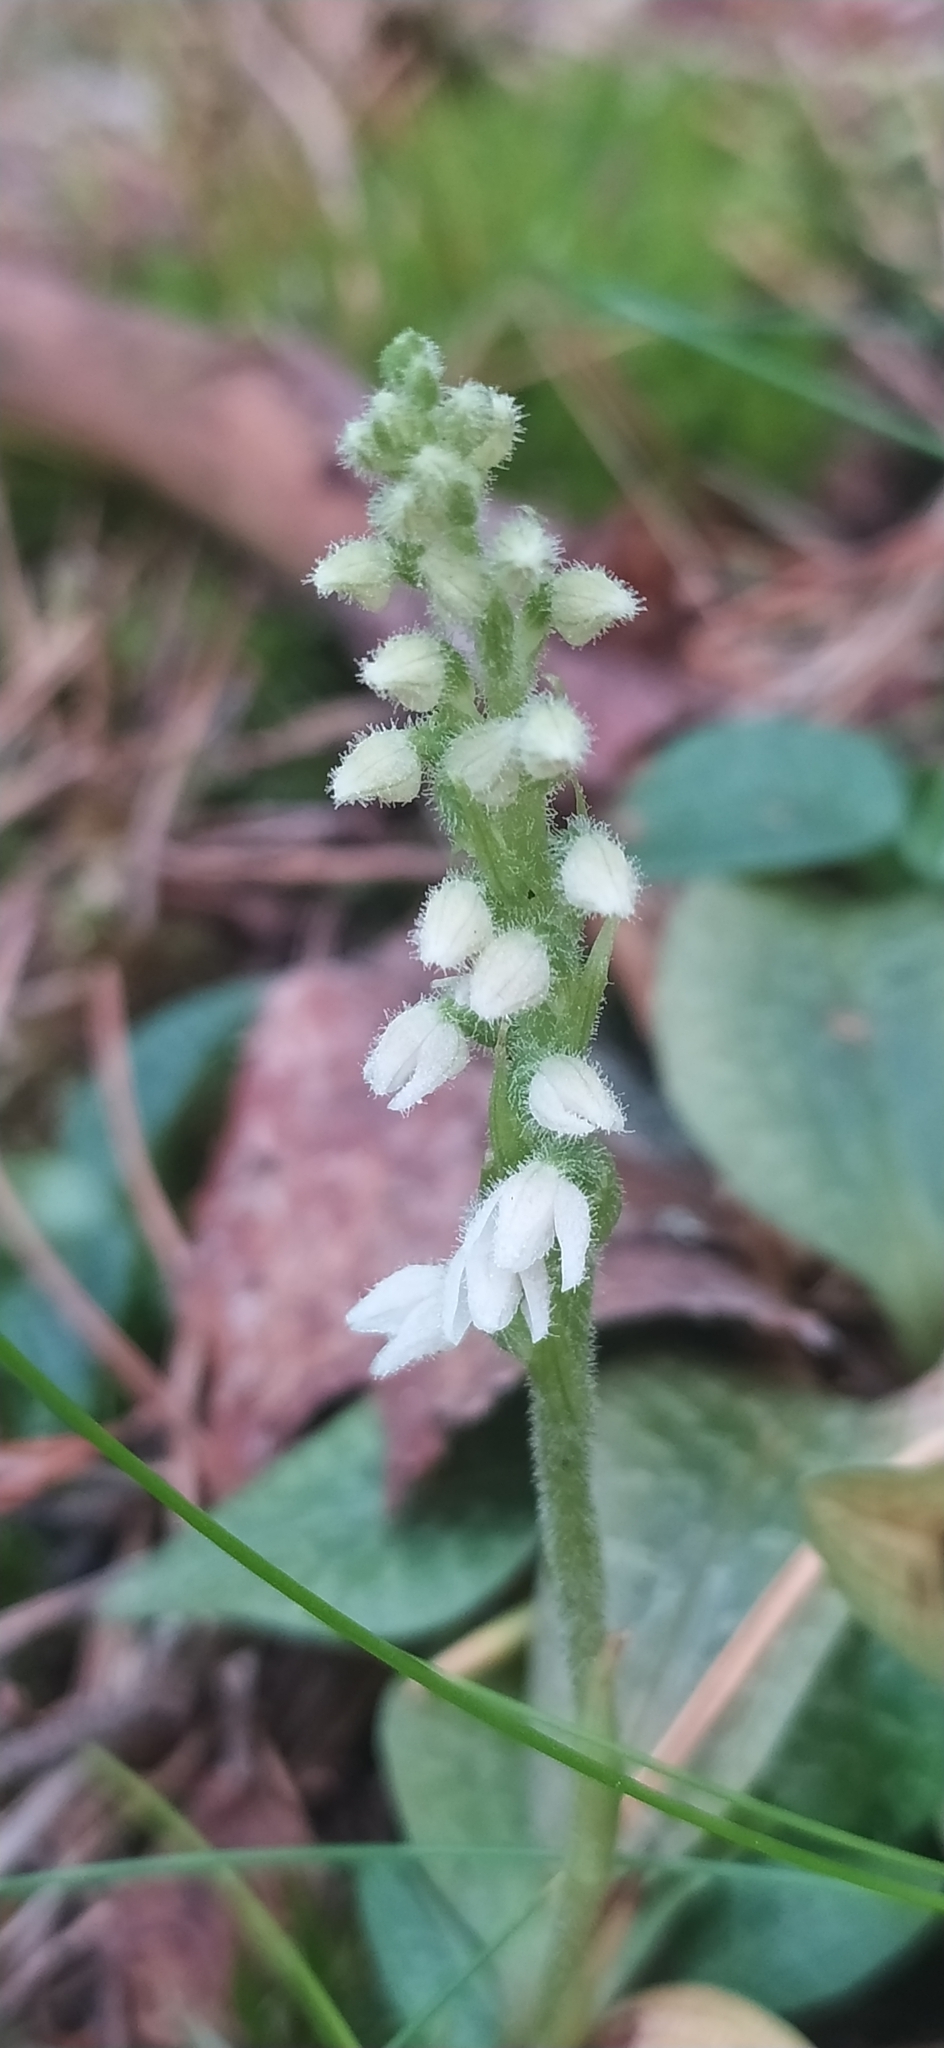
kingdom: Plantae
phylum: Tracheophyta
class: Liliopsida
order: Asparagales
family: Orchidaceae
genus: Goodyera
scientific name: Goodyera repens
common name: Creeping lady's-tresses
